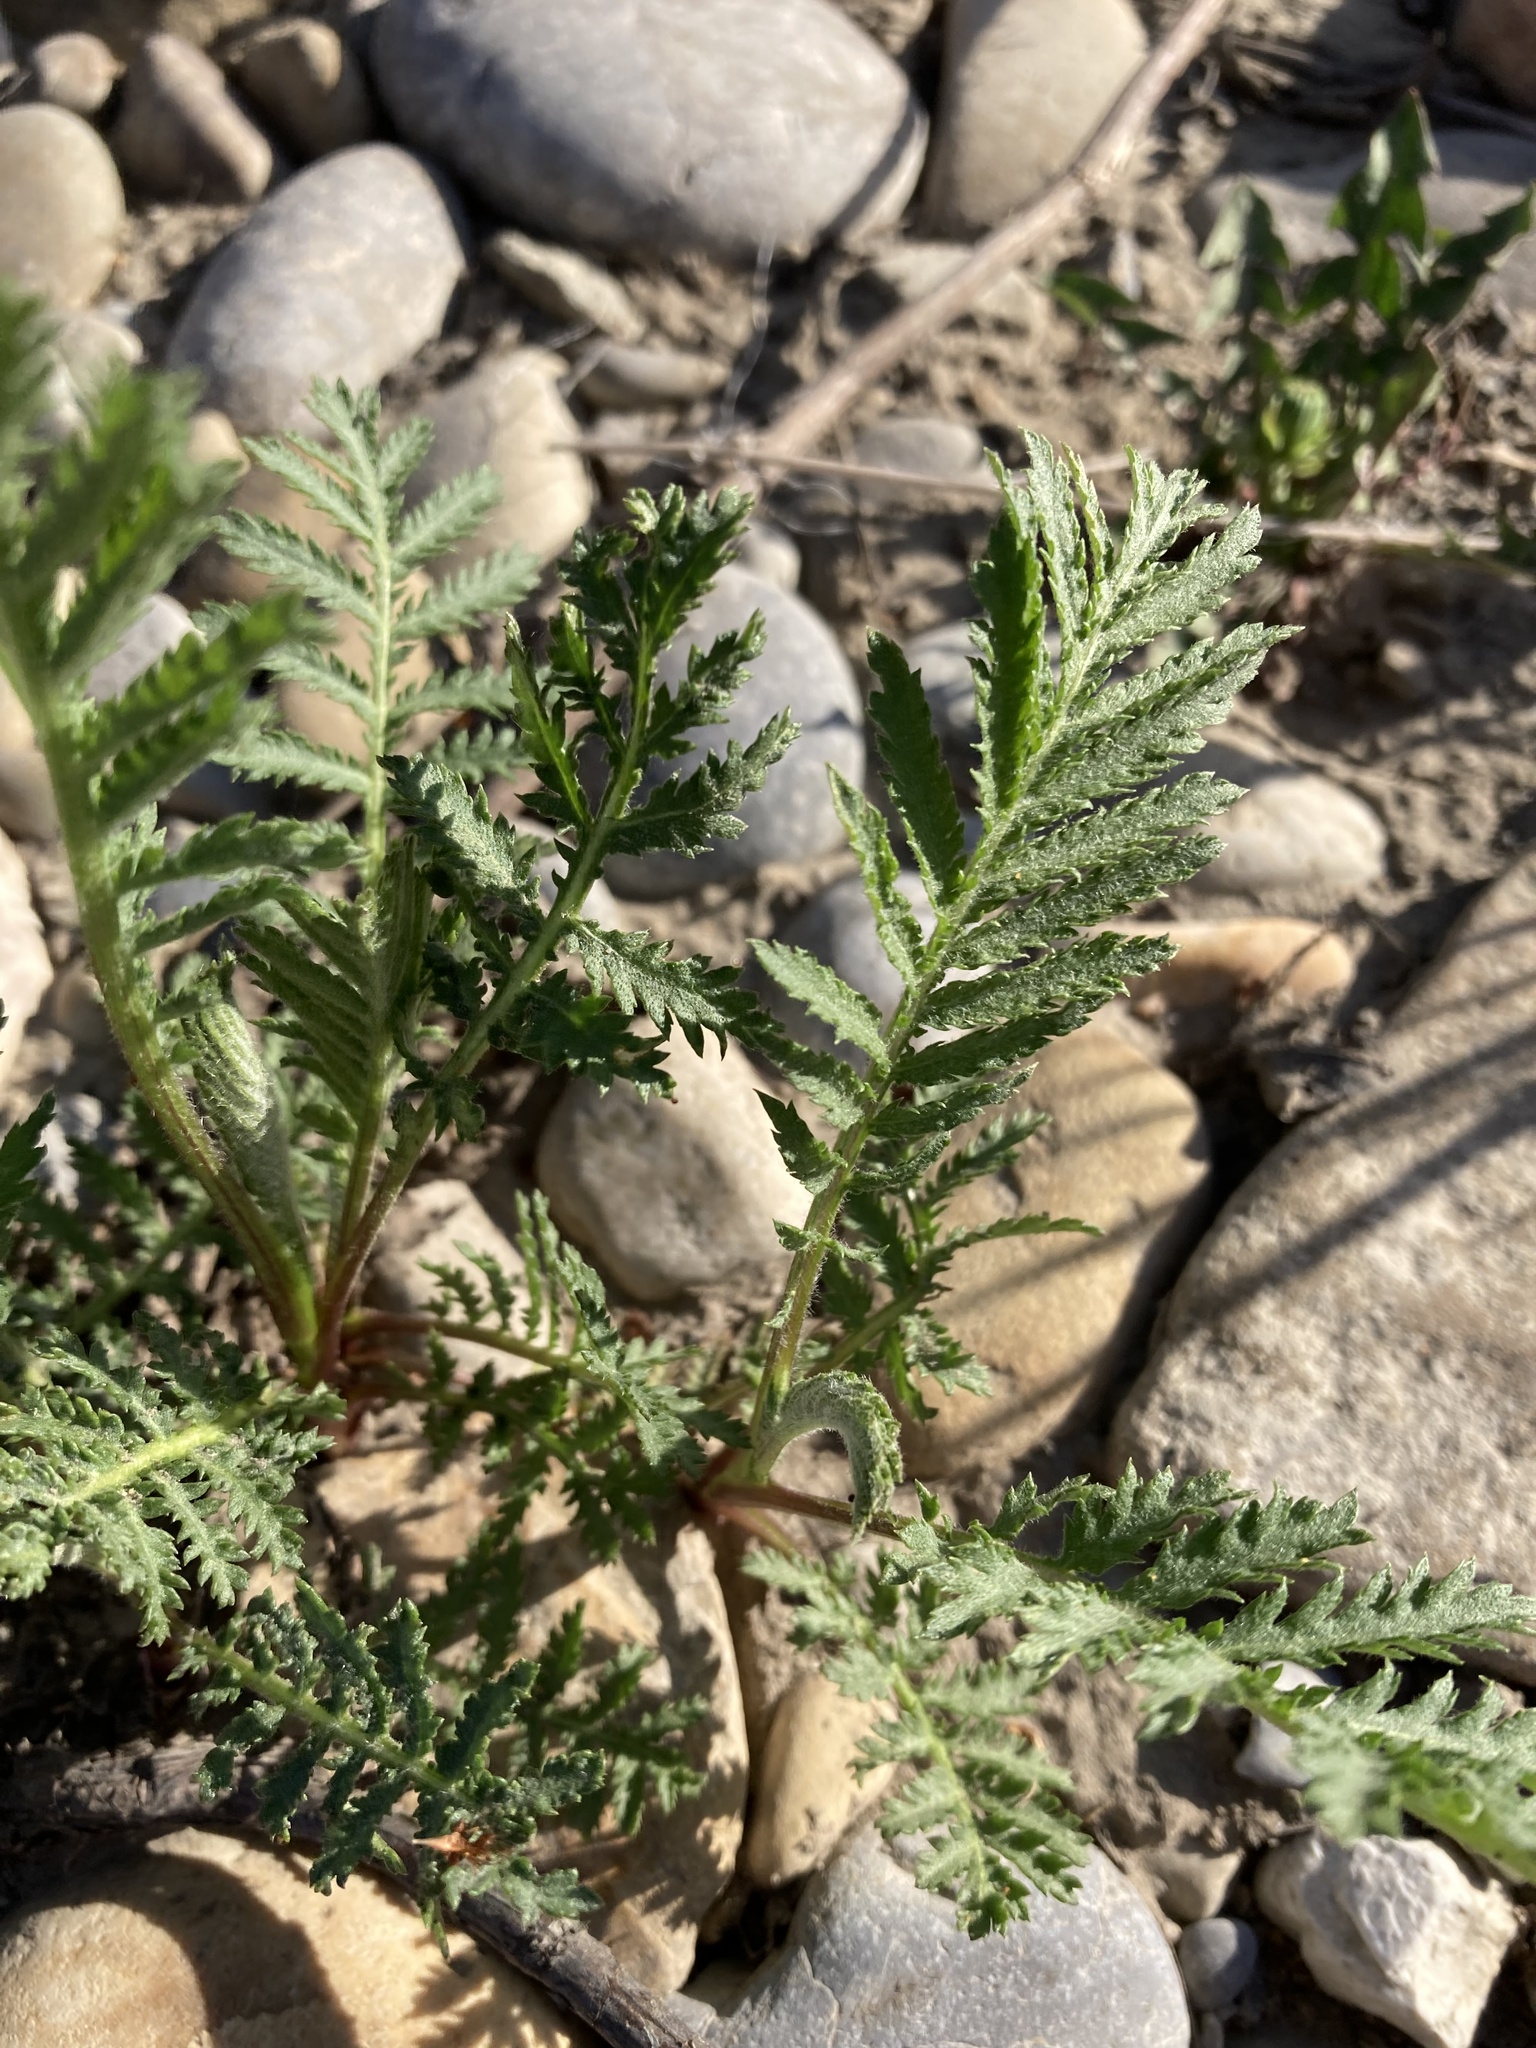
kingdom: Plantae
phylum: Tracheophyta
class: Magnoliopsida
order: Asterales
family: Asteraceae
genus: Tanacetum
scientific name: Tanacetum vulgare
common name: Common tansy
